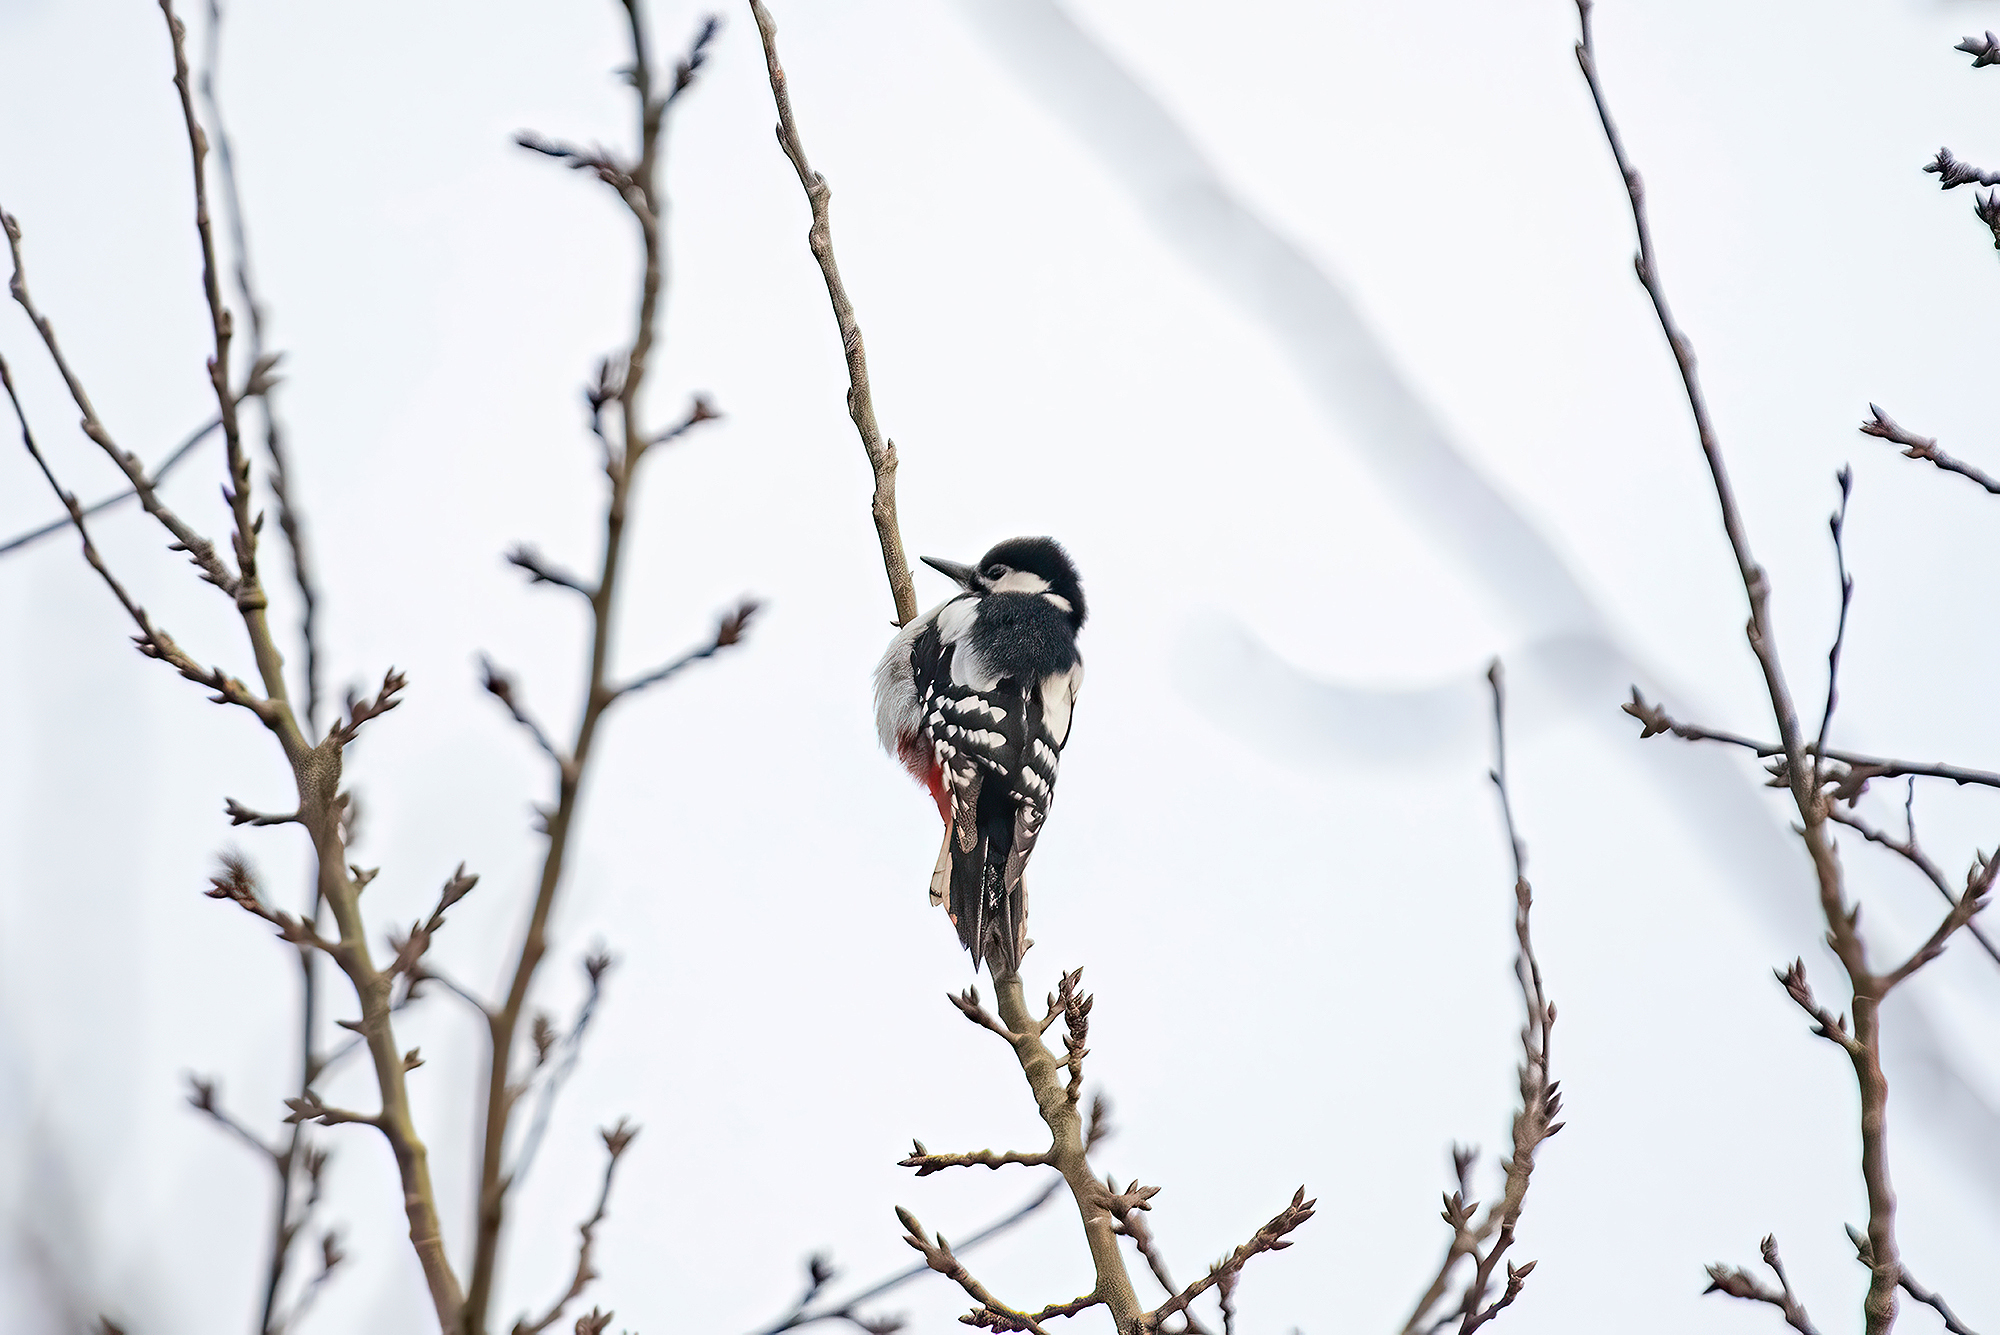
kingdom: Animalia
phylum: Chordata
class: Aves
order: Piciformes
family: Picidae
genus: Dendrocopos
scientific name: Dendrocopos major
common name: Great spotted woodpecker
